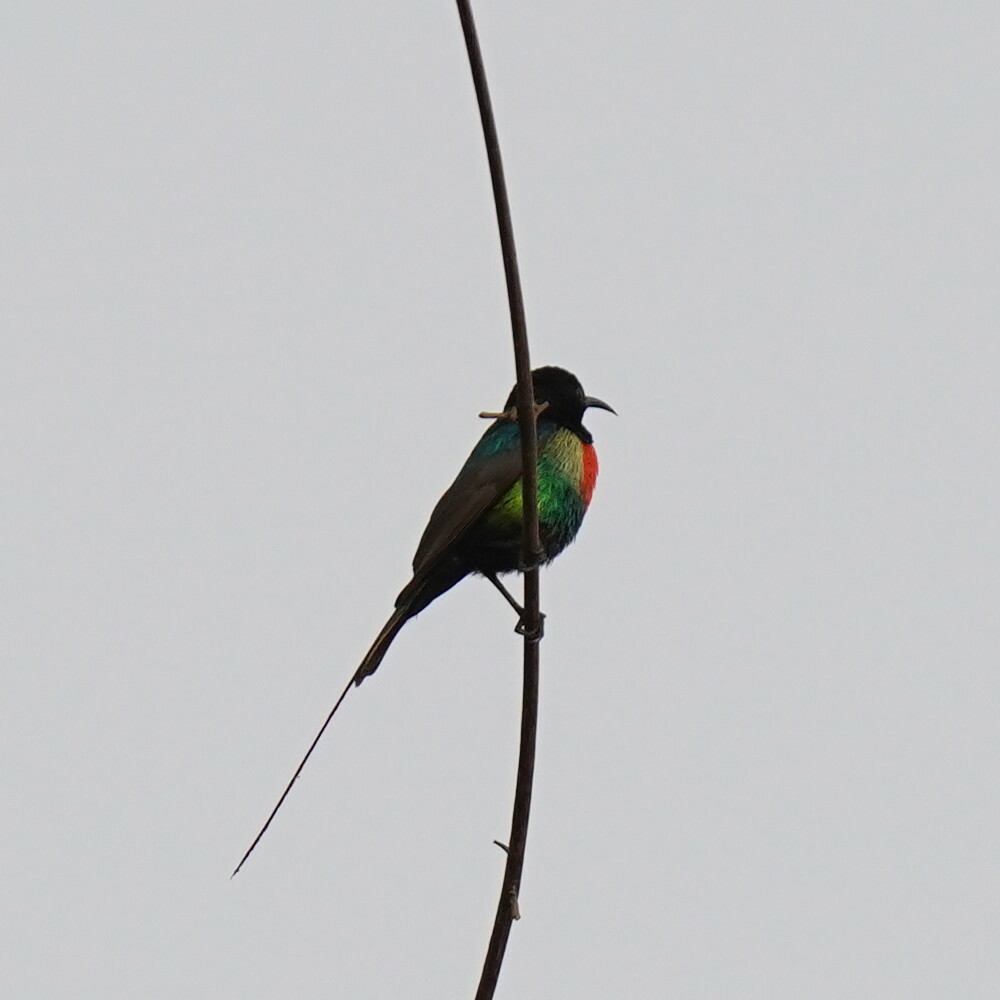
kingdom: Animalia
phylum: Chordata
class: Aves
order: Passeriformes
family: Nectariniidae
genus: Cinnyris
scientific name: Cinnyris pulchellus
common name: Beautiful sunbird
